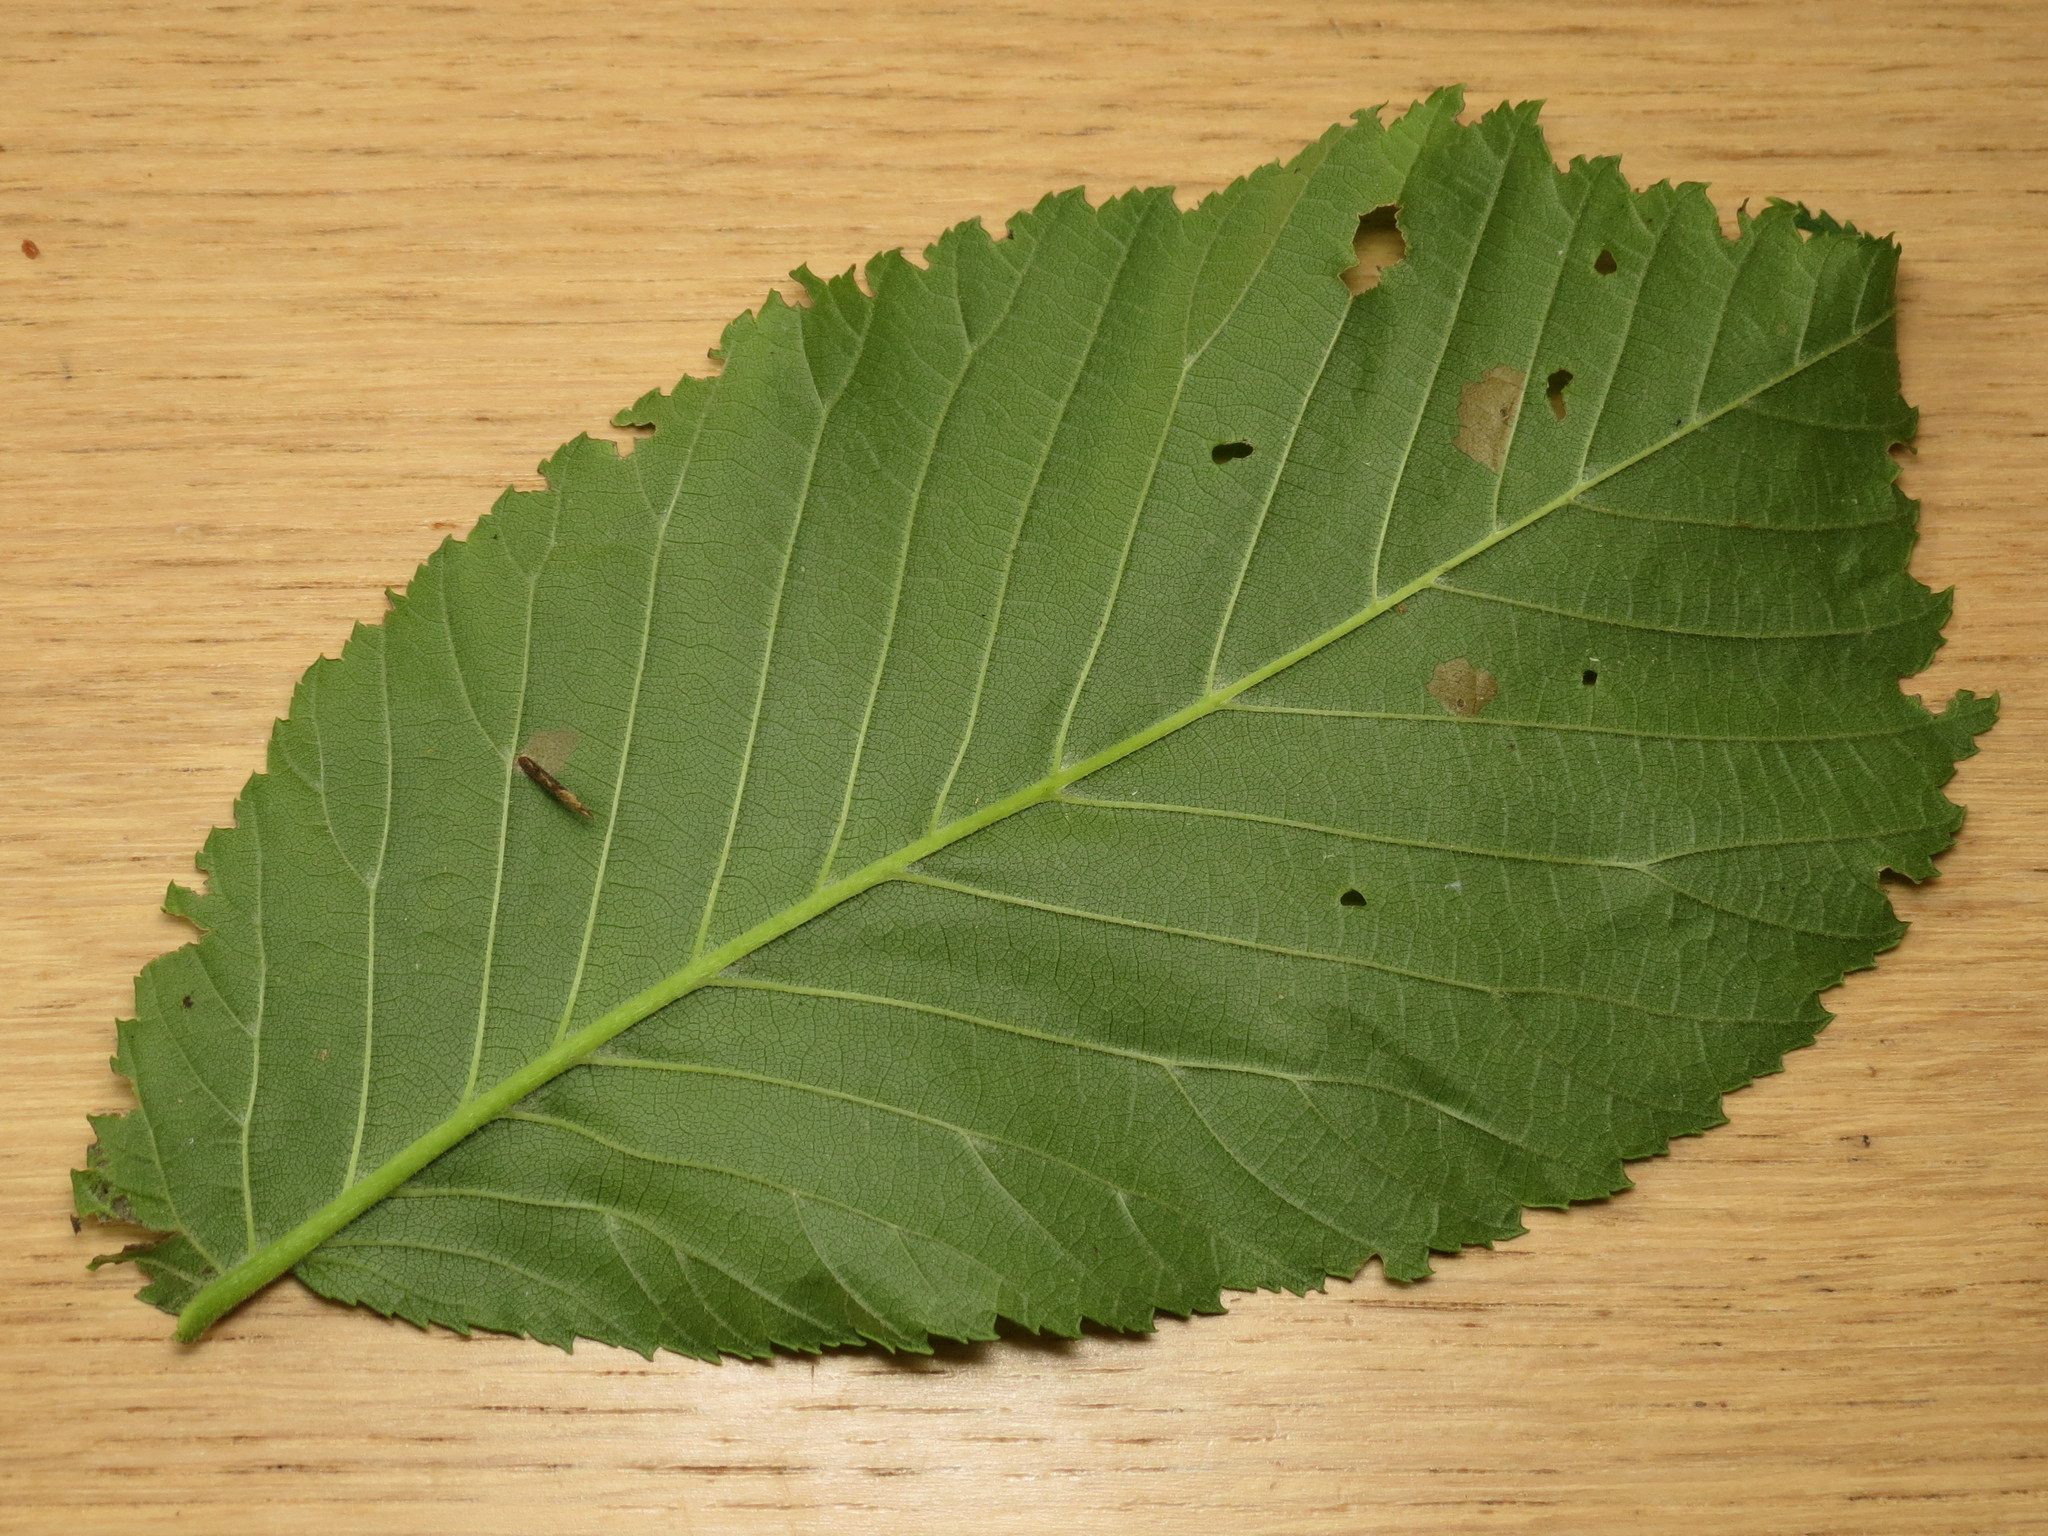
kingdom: Animalia
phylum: Arthropoda
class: Insecta
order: Lepidoptera
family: Coleophoridae
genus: Coleophora
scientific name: Coleophora limosipennella
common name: Dark elm case-bearer
